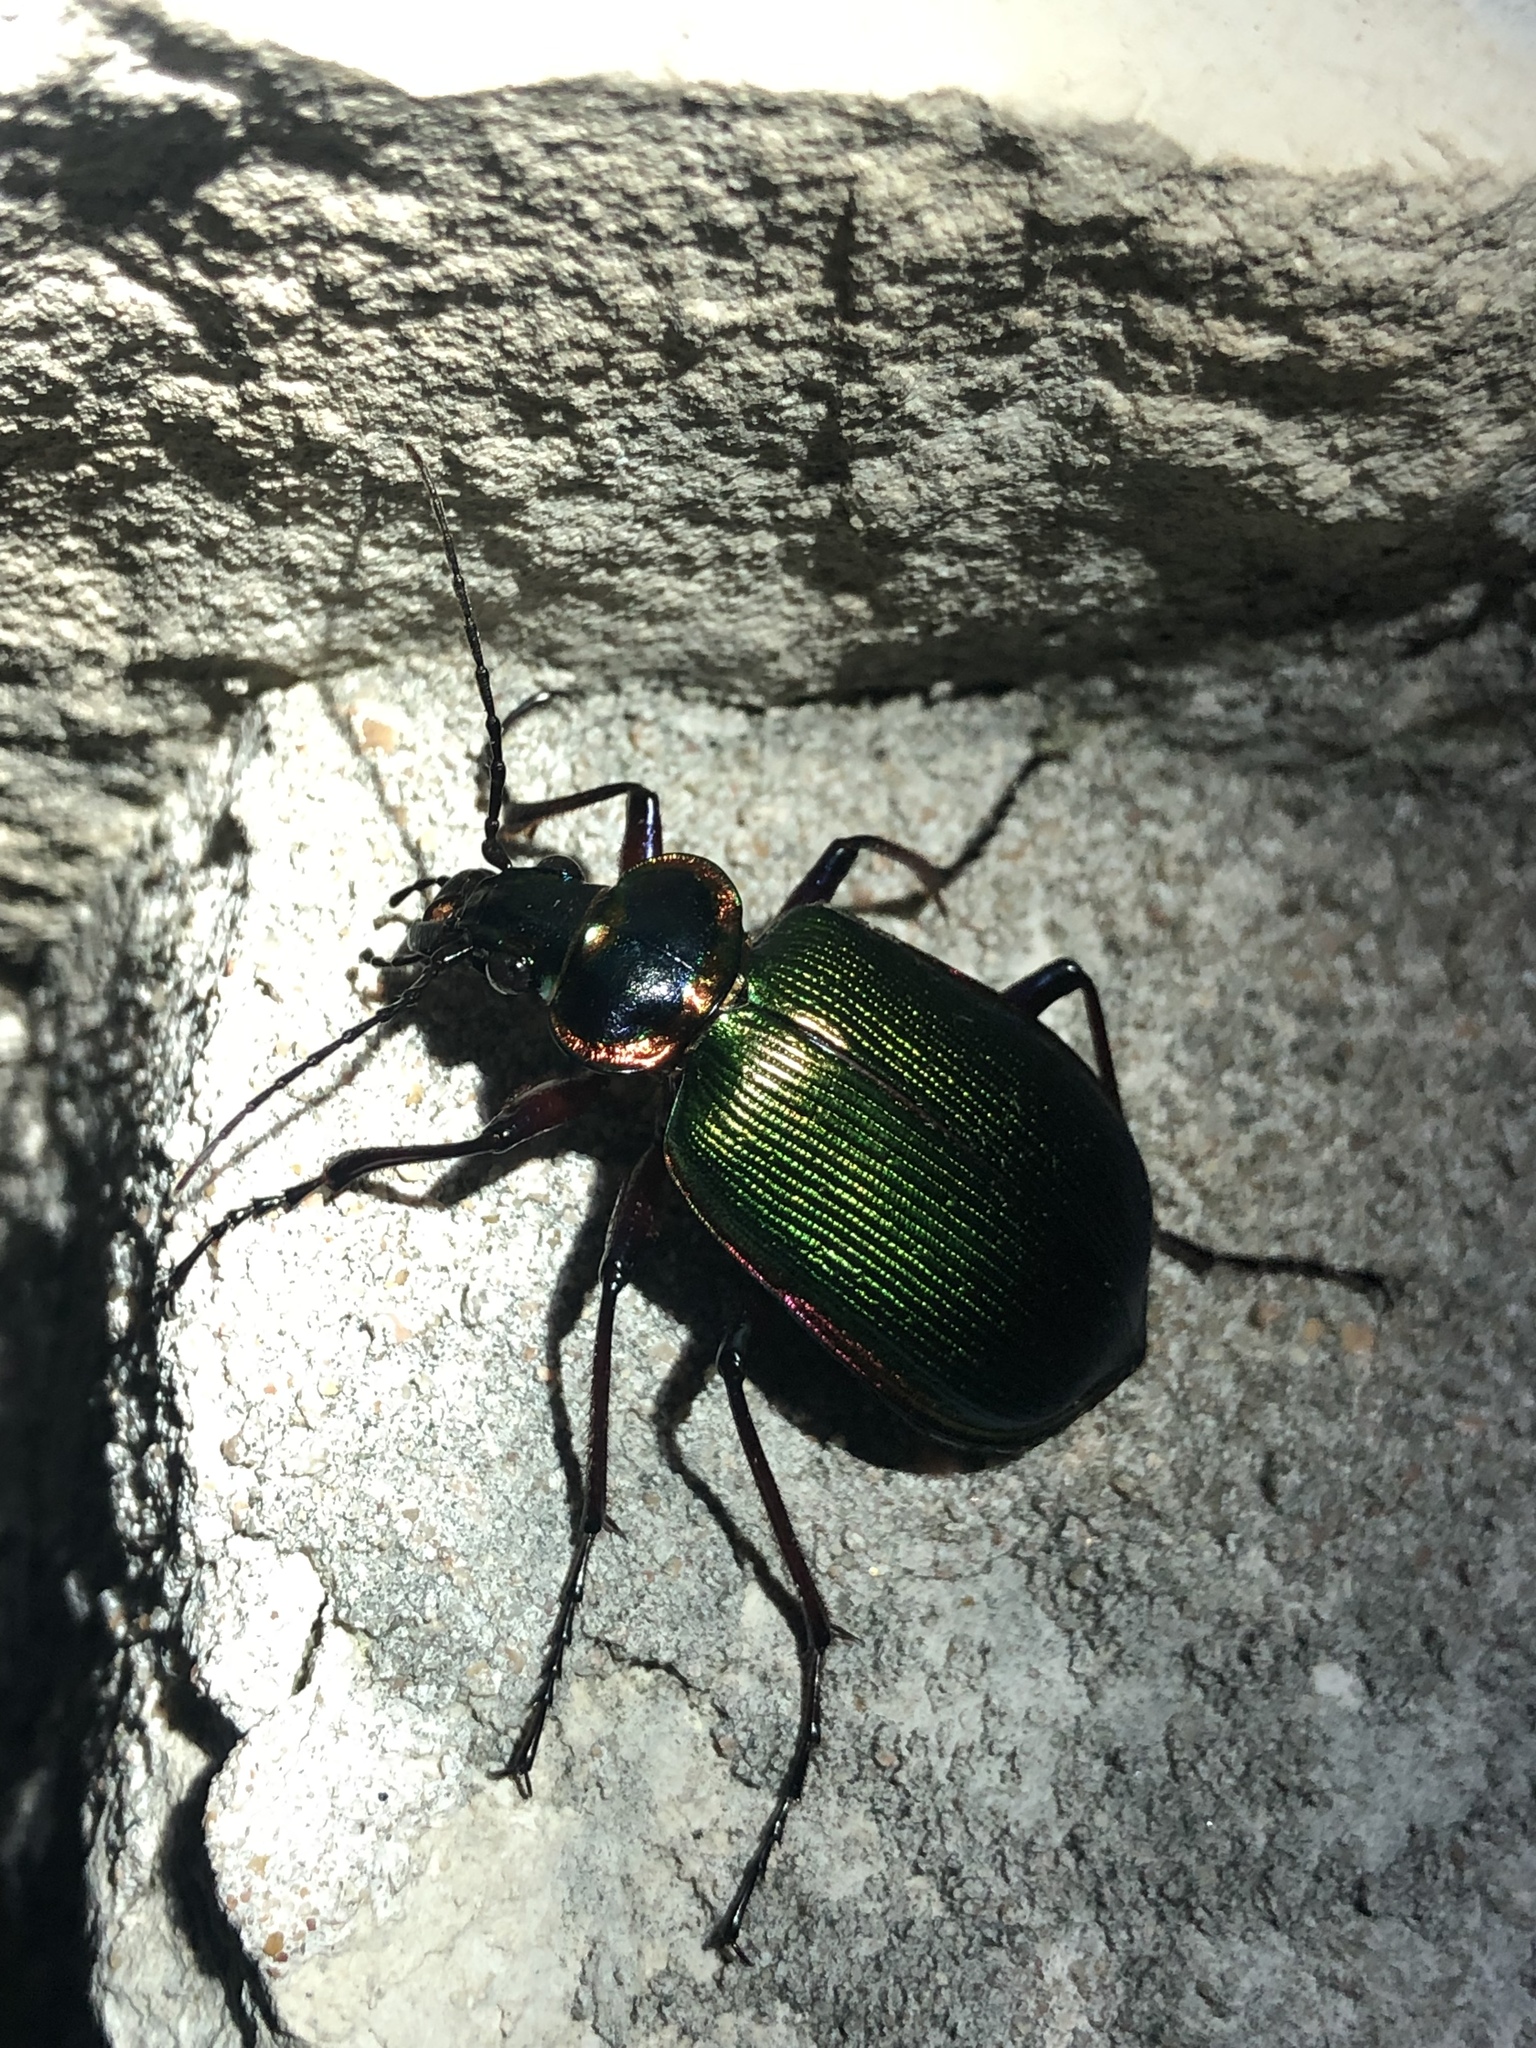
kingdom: Animalia
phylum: Arthropoda
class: Insecta
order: Coleoptera
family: Carabidae
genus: Calosoma
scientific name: Calosoma scrutator
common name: Fiery searcher beetle
